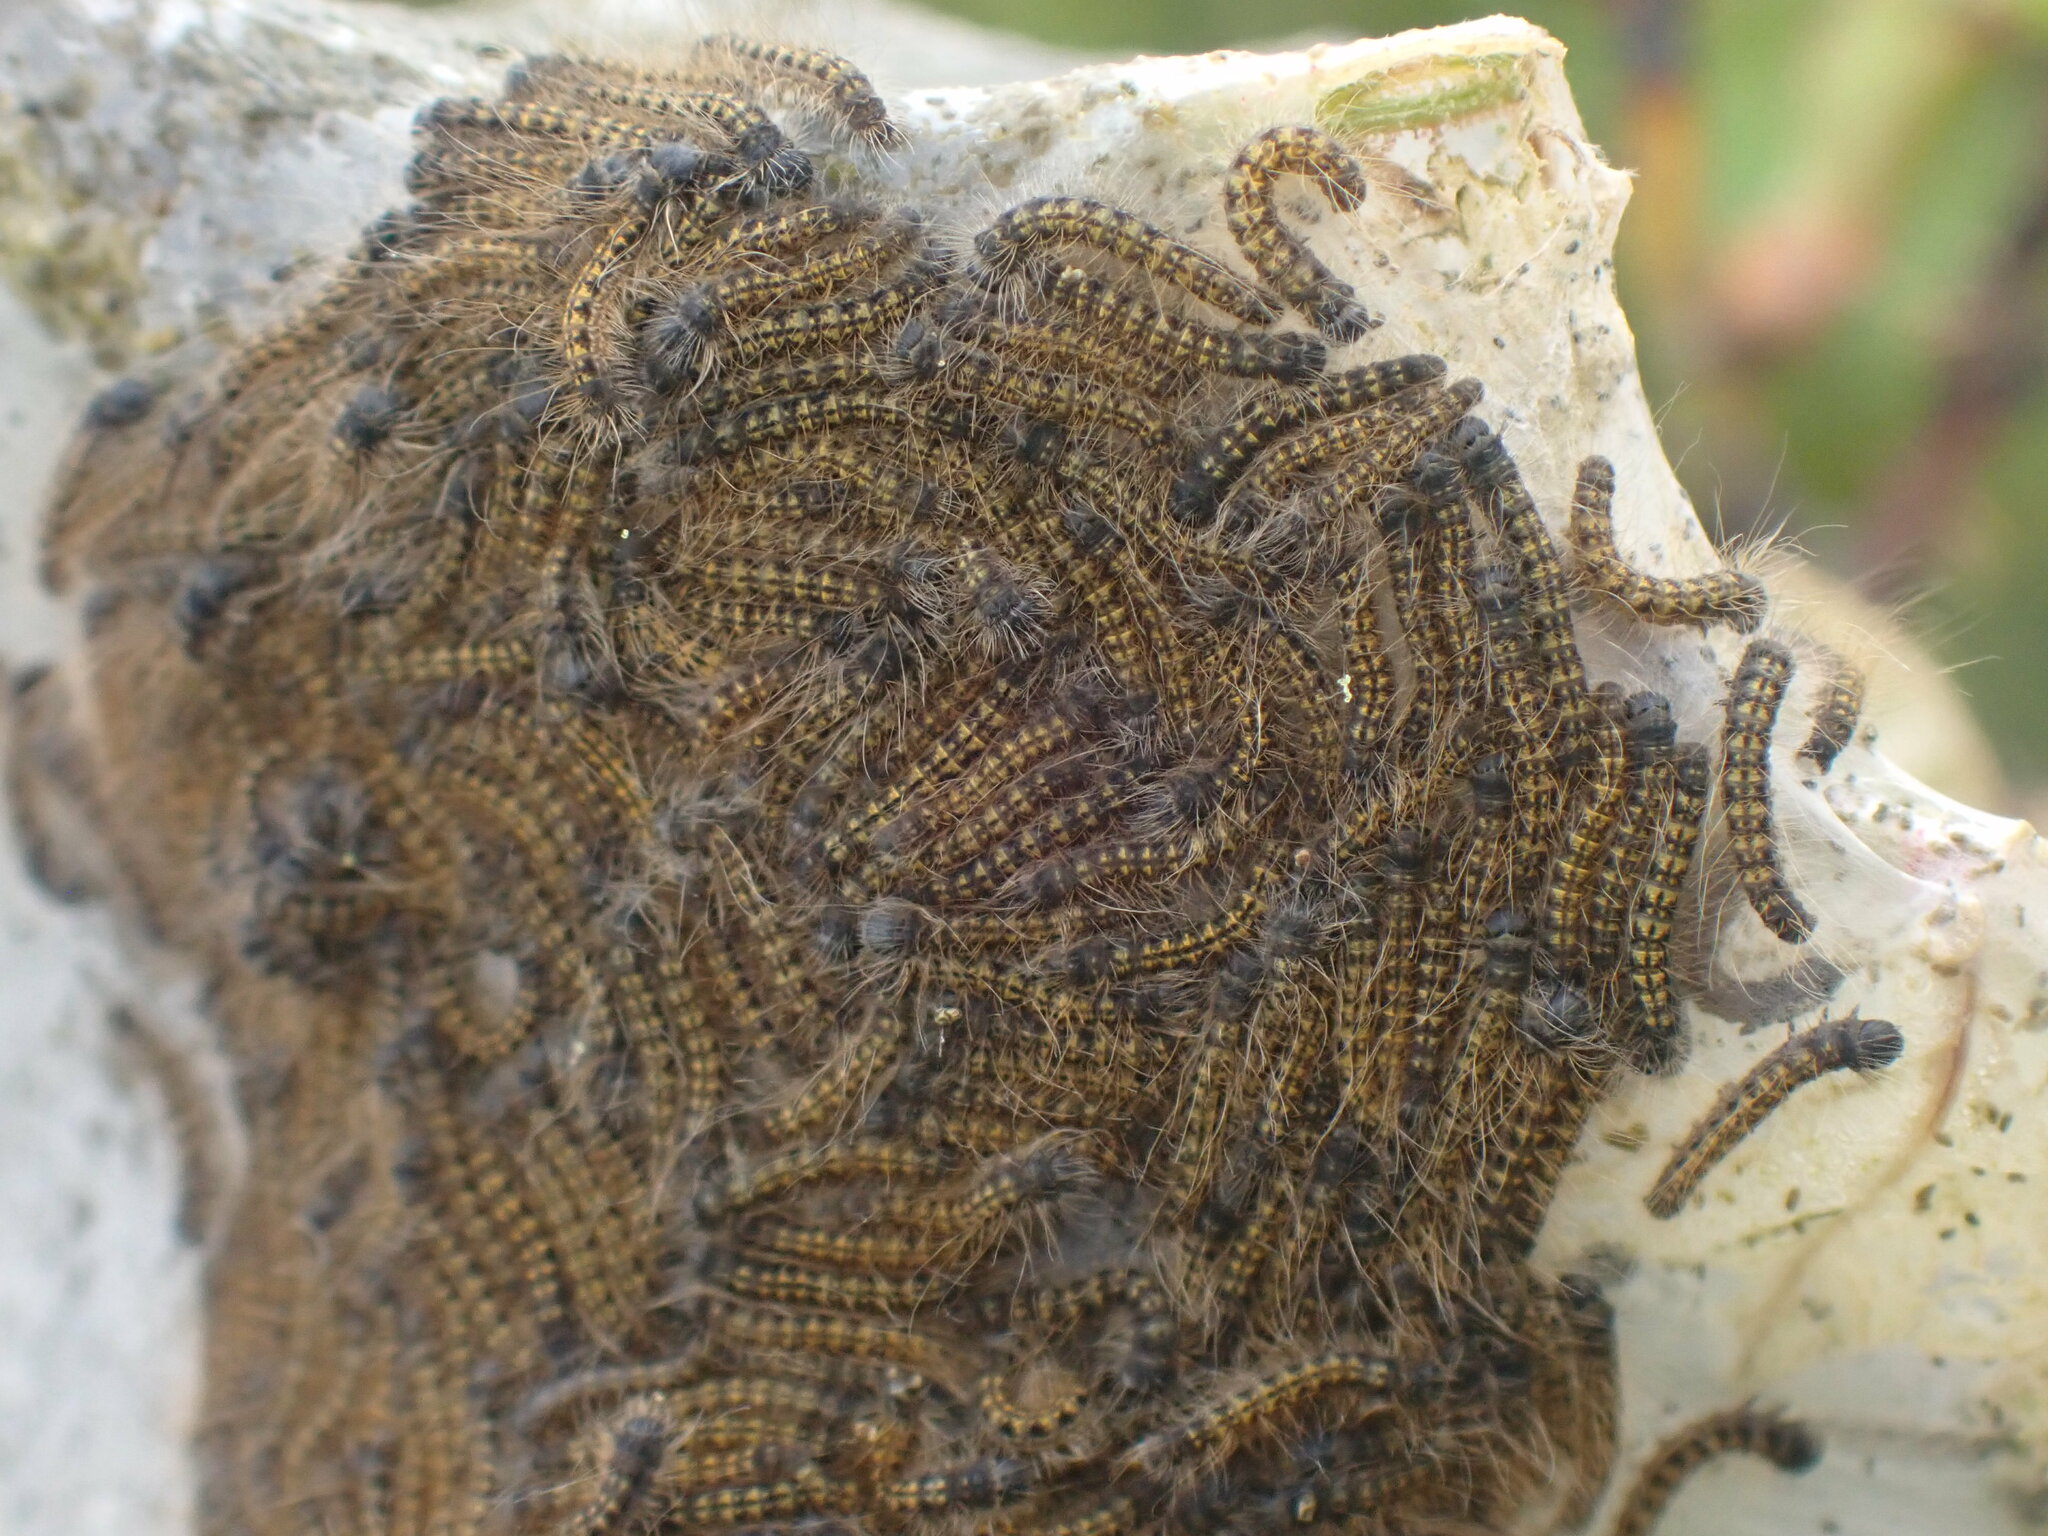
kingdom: Animalia
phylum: Arthropoda
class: Insecta
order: Lepidoptera
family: Lasiocampidae
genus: Malacosoma
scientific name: Malacosoma californica
